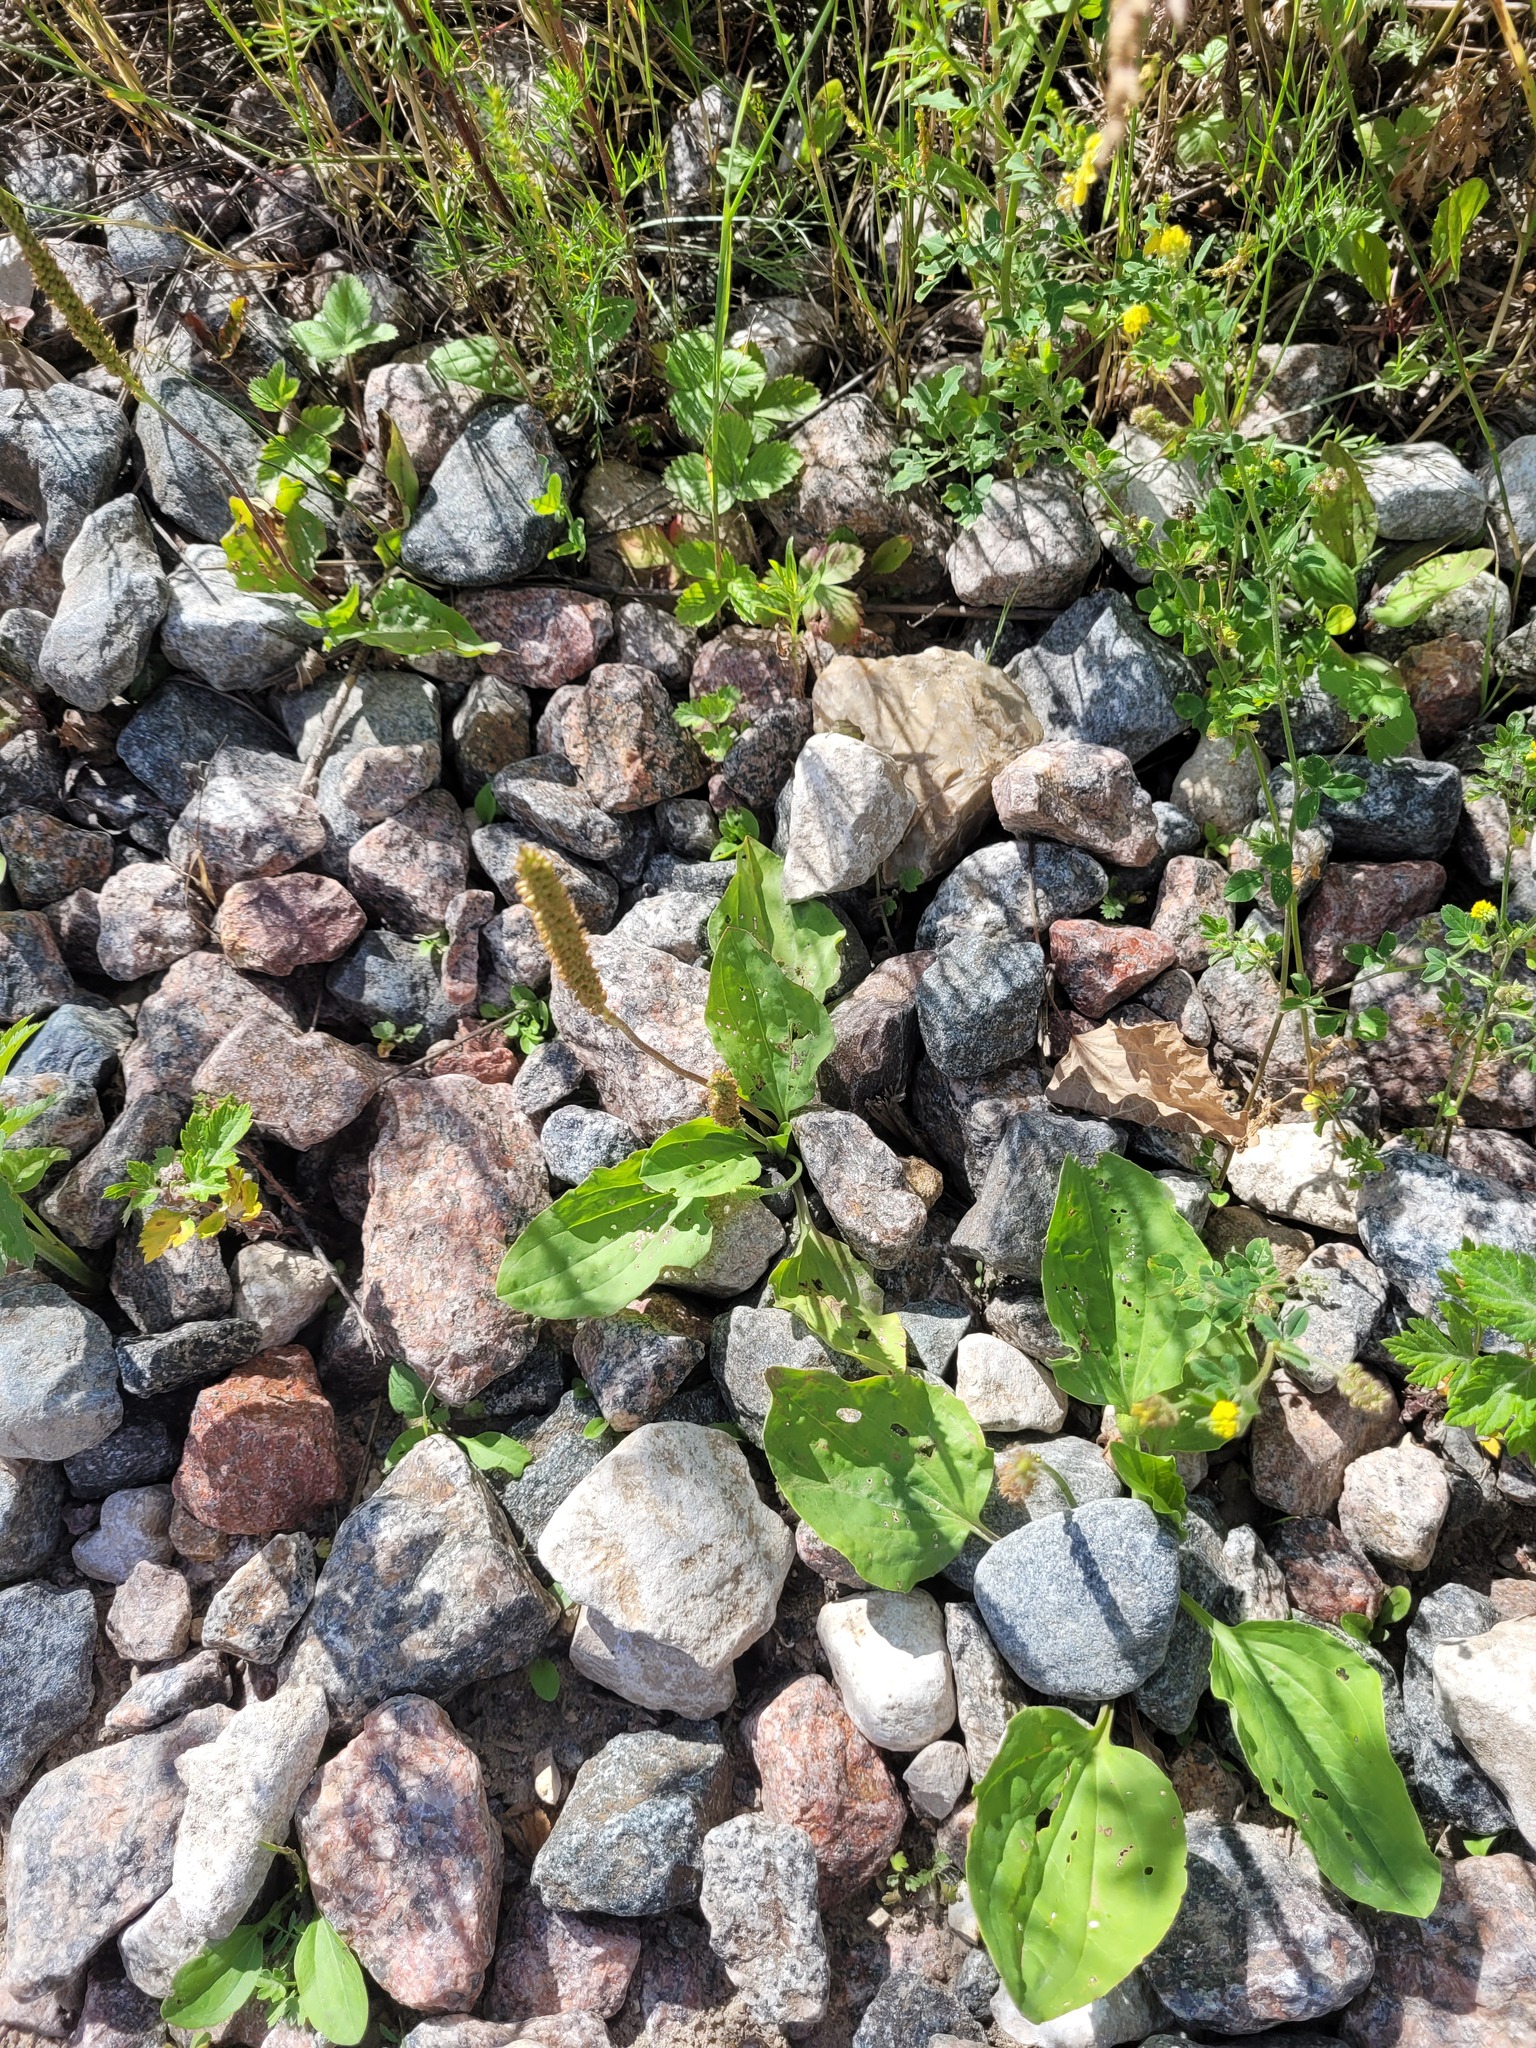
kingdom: Plantae
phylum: Tracheophyta
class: Magnoliopsida
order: Lamiales
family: Plantaginaceae
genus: Plantago
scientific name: Plantago major
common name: Common plantain
